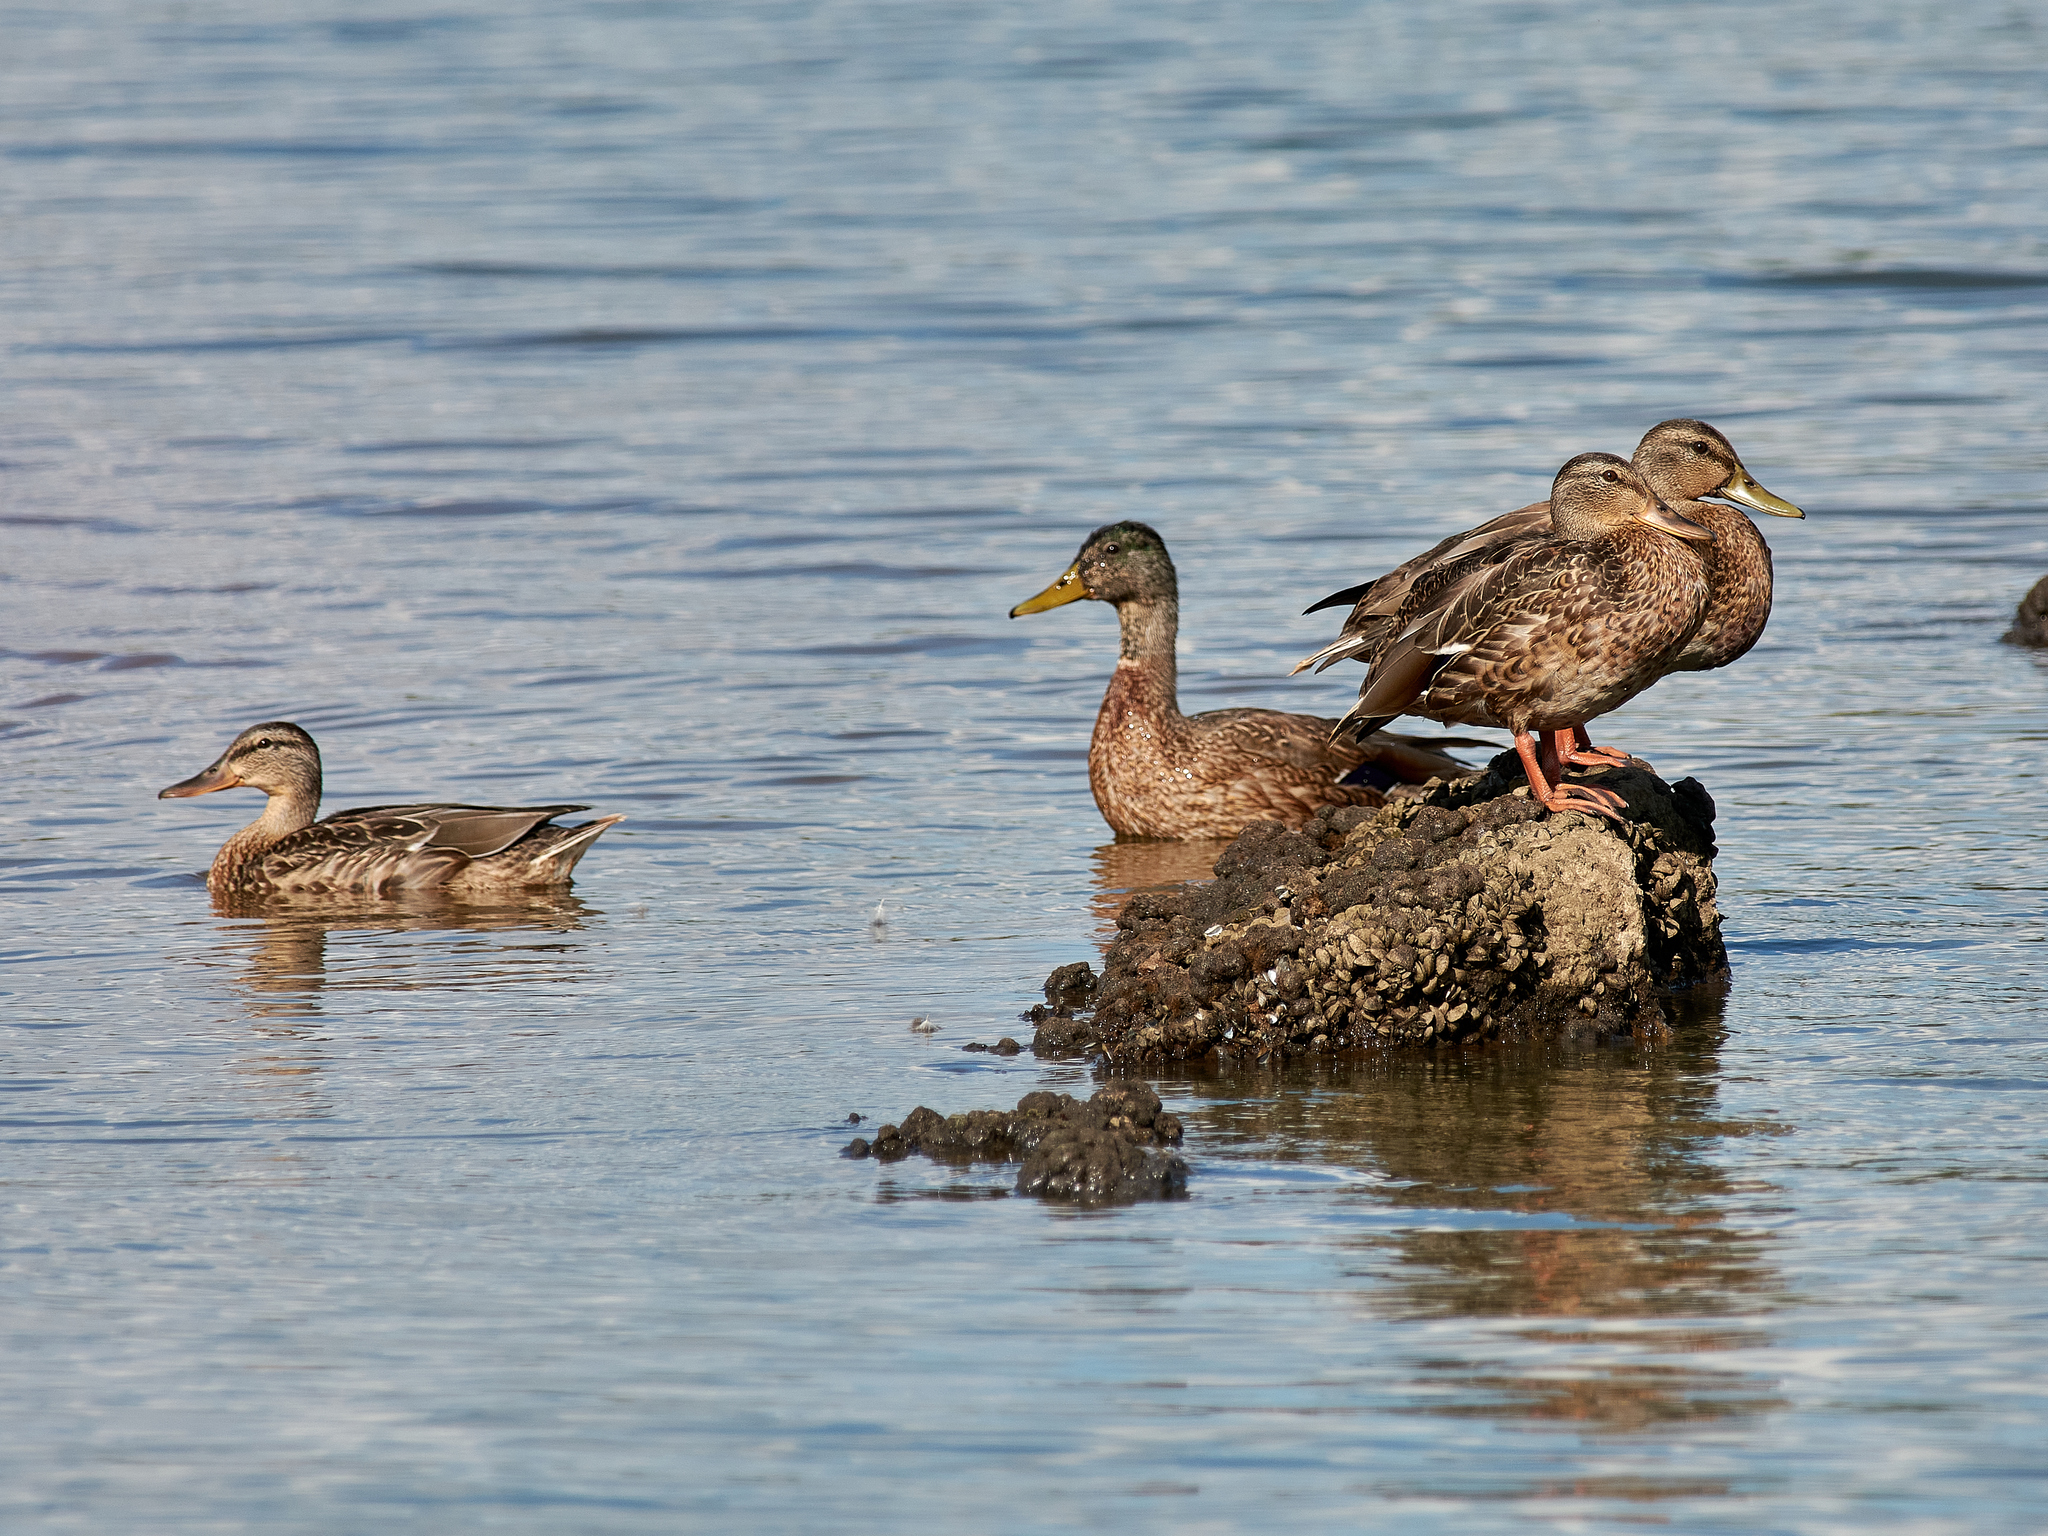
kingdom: Animalia
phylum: Chordata
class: Aves
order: Anseriformes
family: Anatidae
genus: Anas
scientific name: Anas platyrhynchos
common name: Mallard
